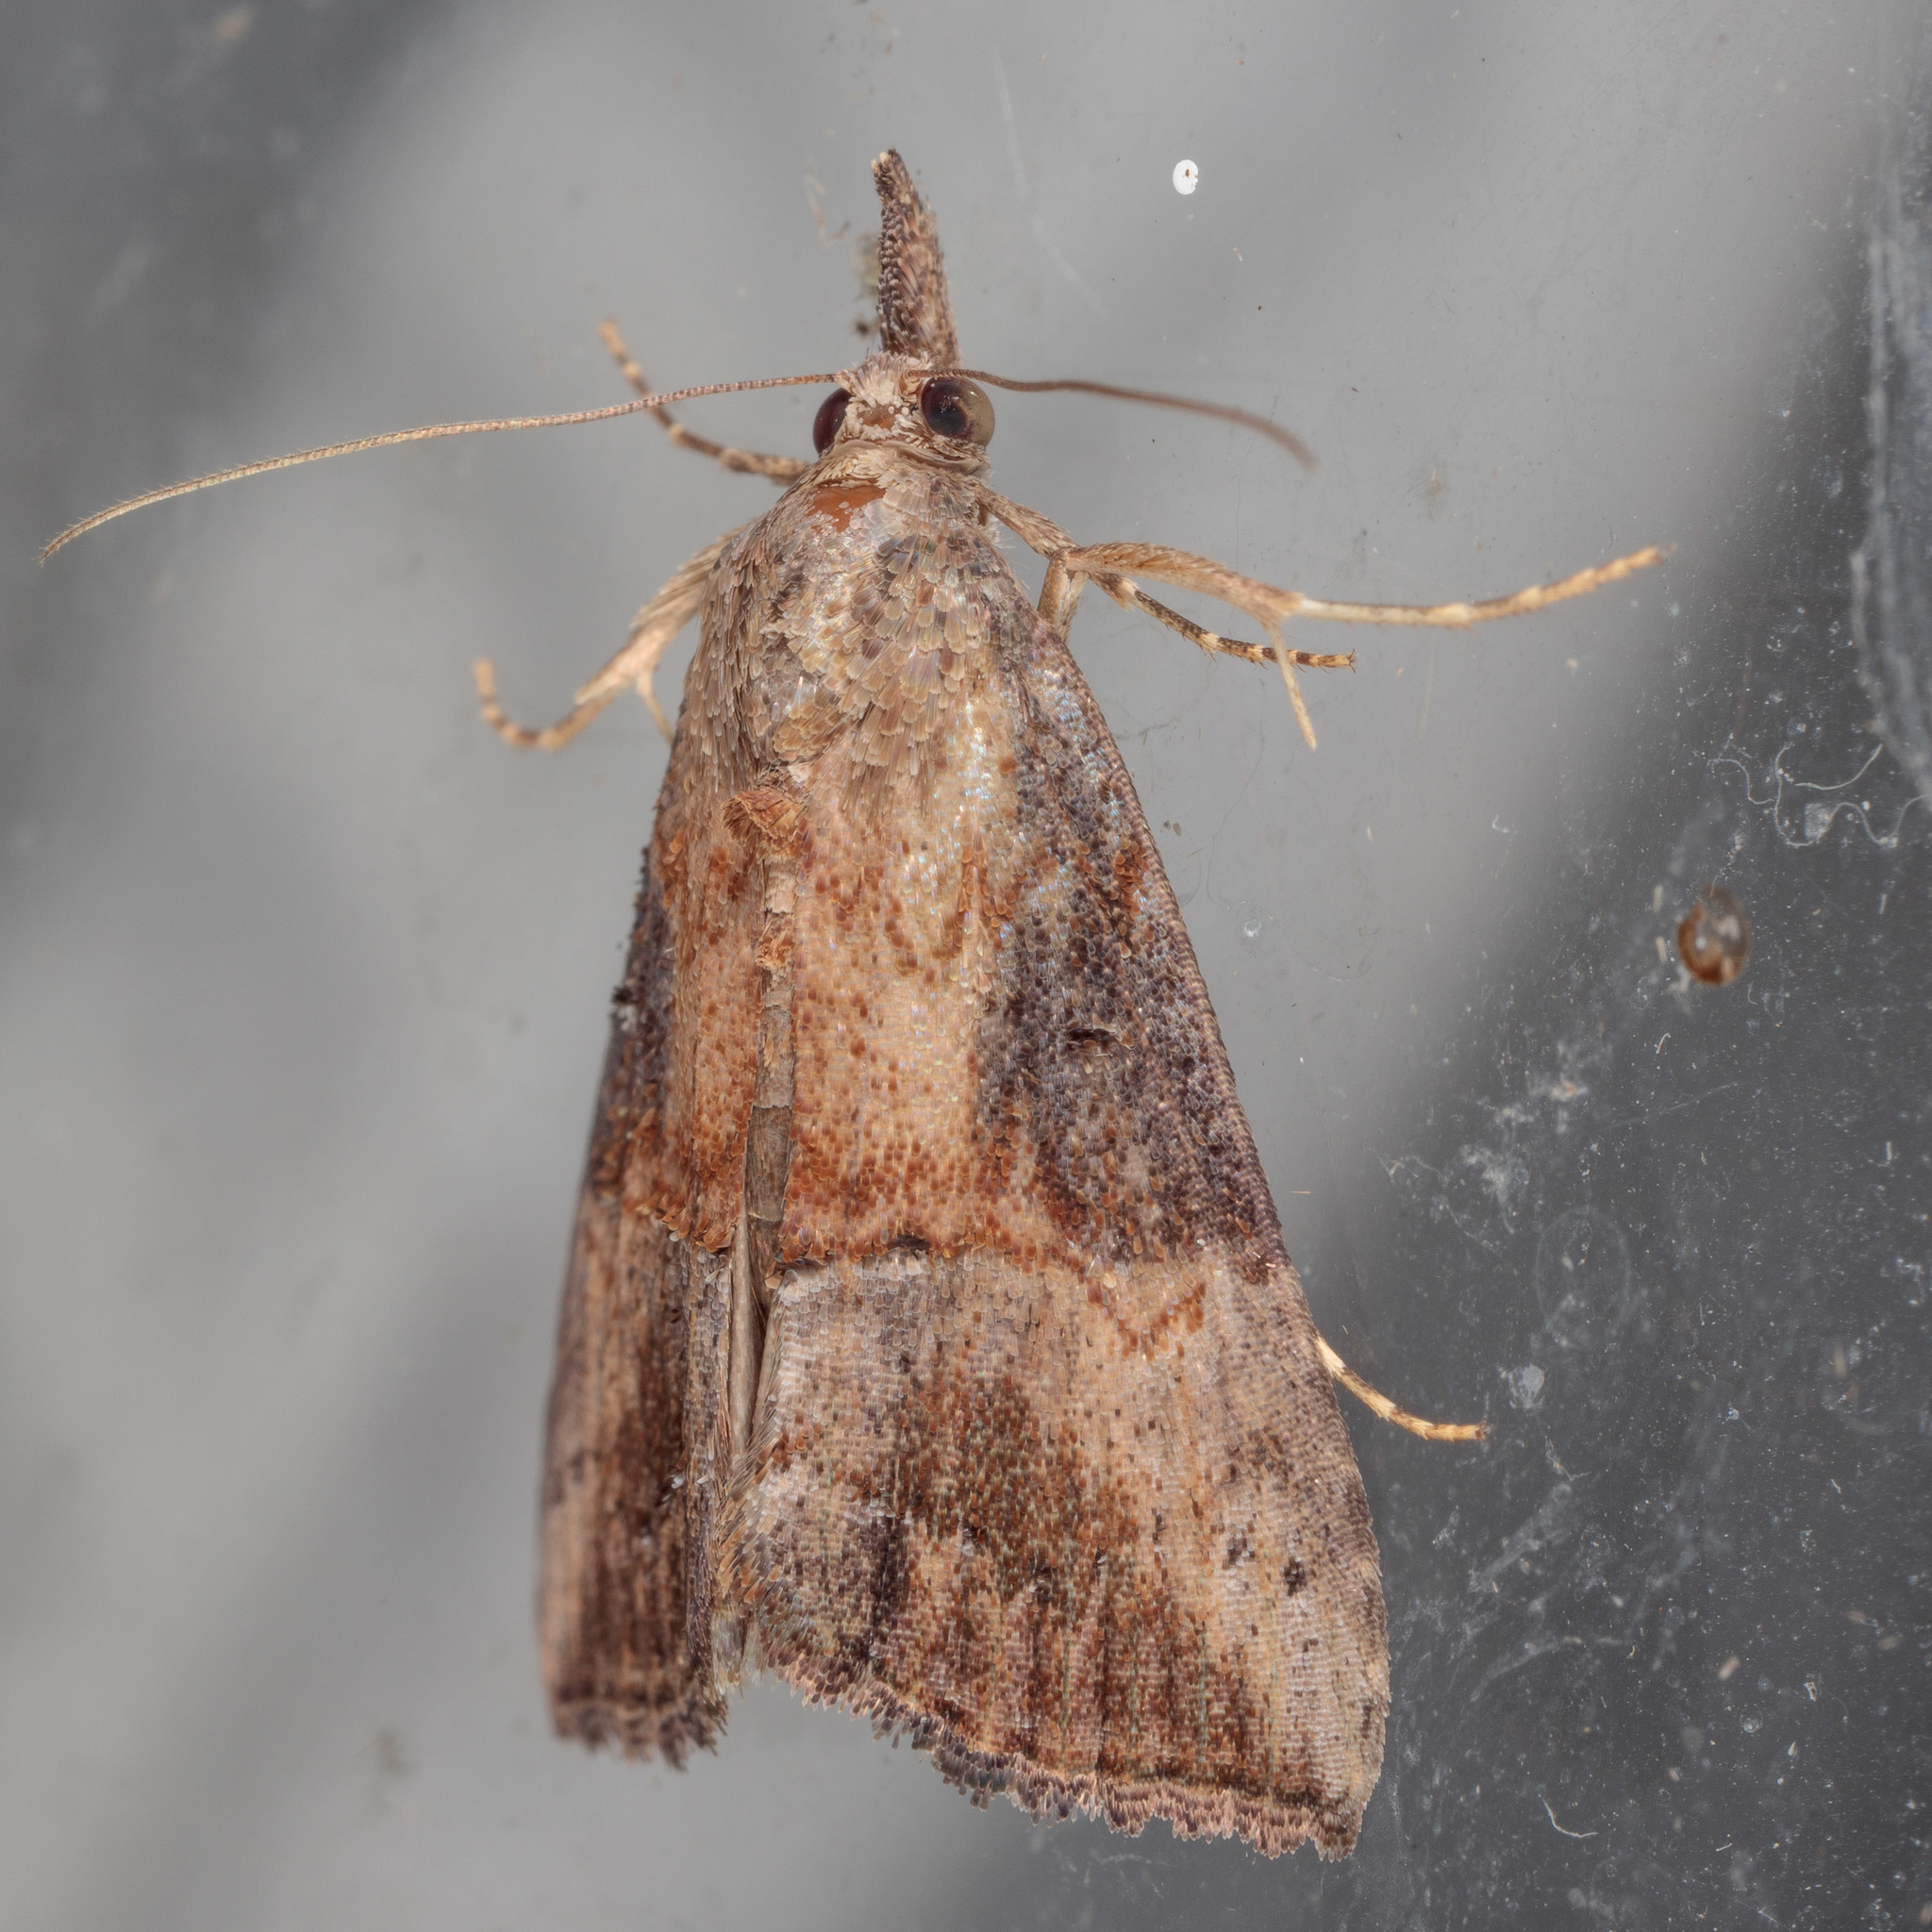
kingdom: Animalia
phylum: Arthropoda
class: Insecta
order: Lepidoptera
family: Erebidae
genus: Hypena
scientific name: Hypena scabra
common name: Green cloverworm
